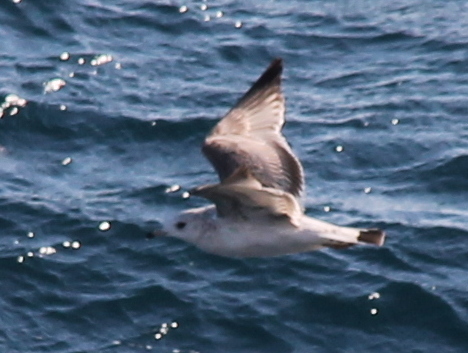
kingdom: Animalia
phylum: Chordata
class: Aves
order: Charadriiformes
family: Laridae
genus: Larus
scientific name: Larus canus
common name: Mew gull
